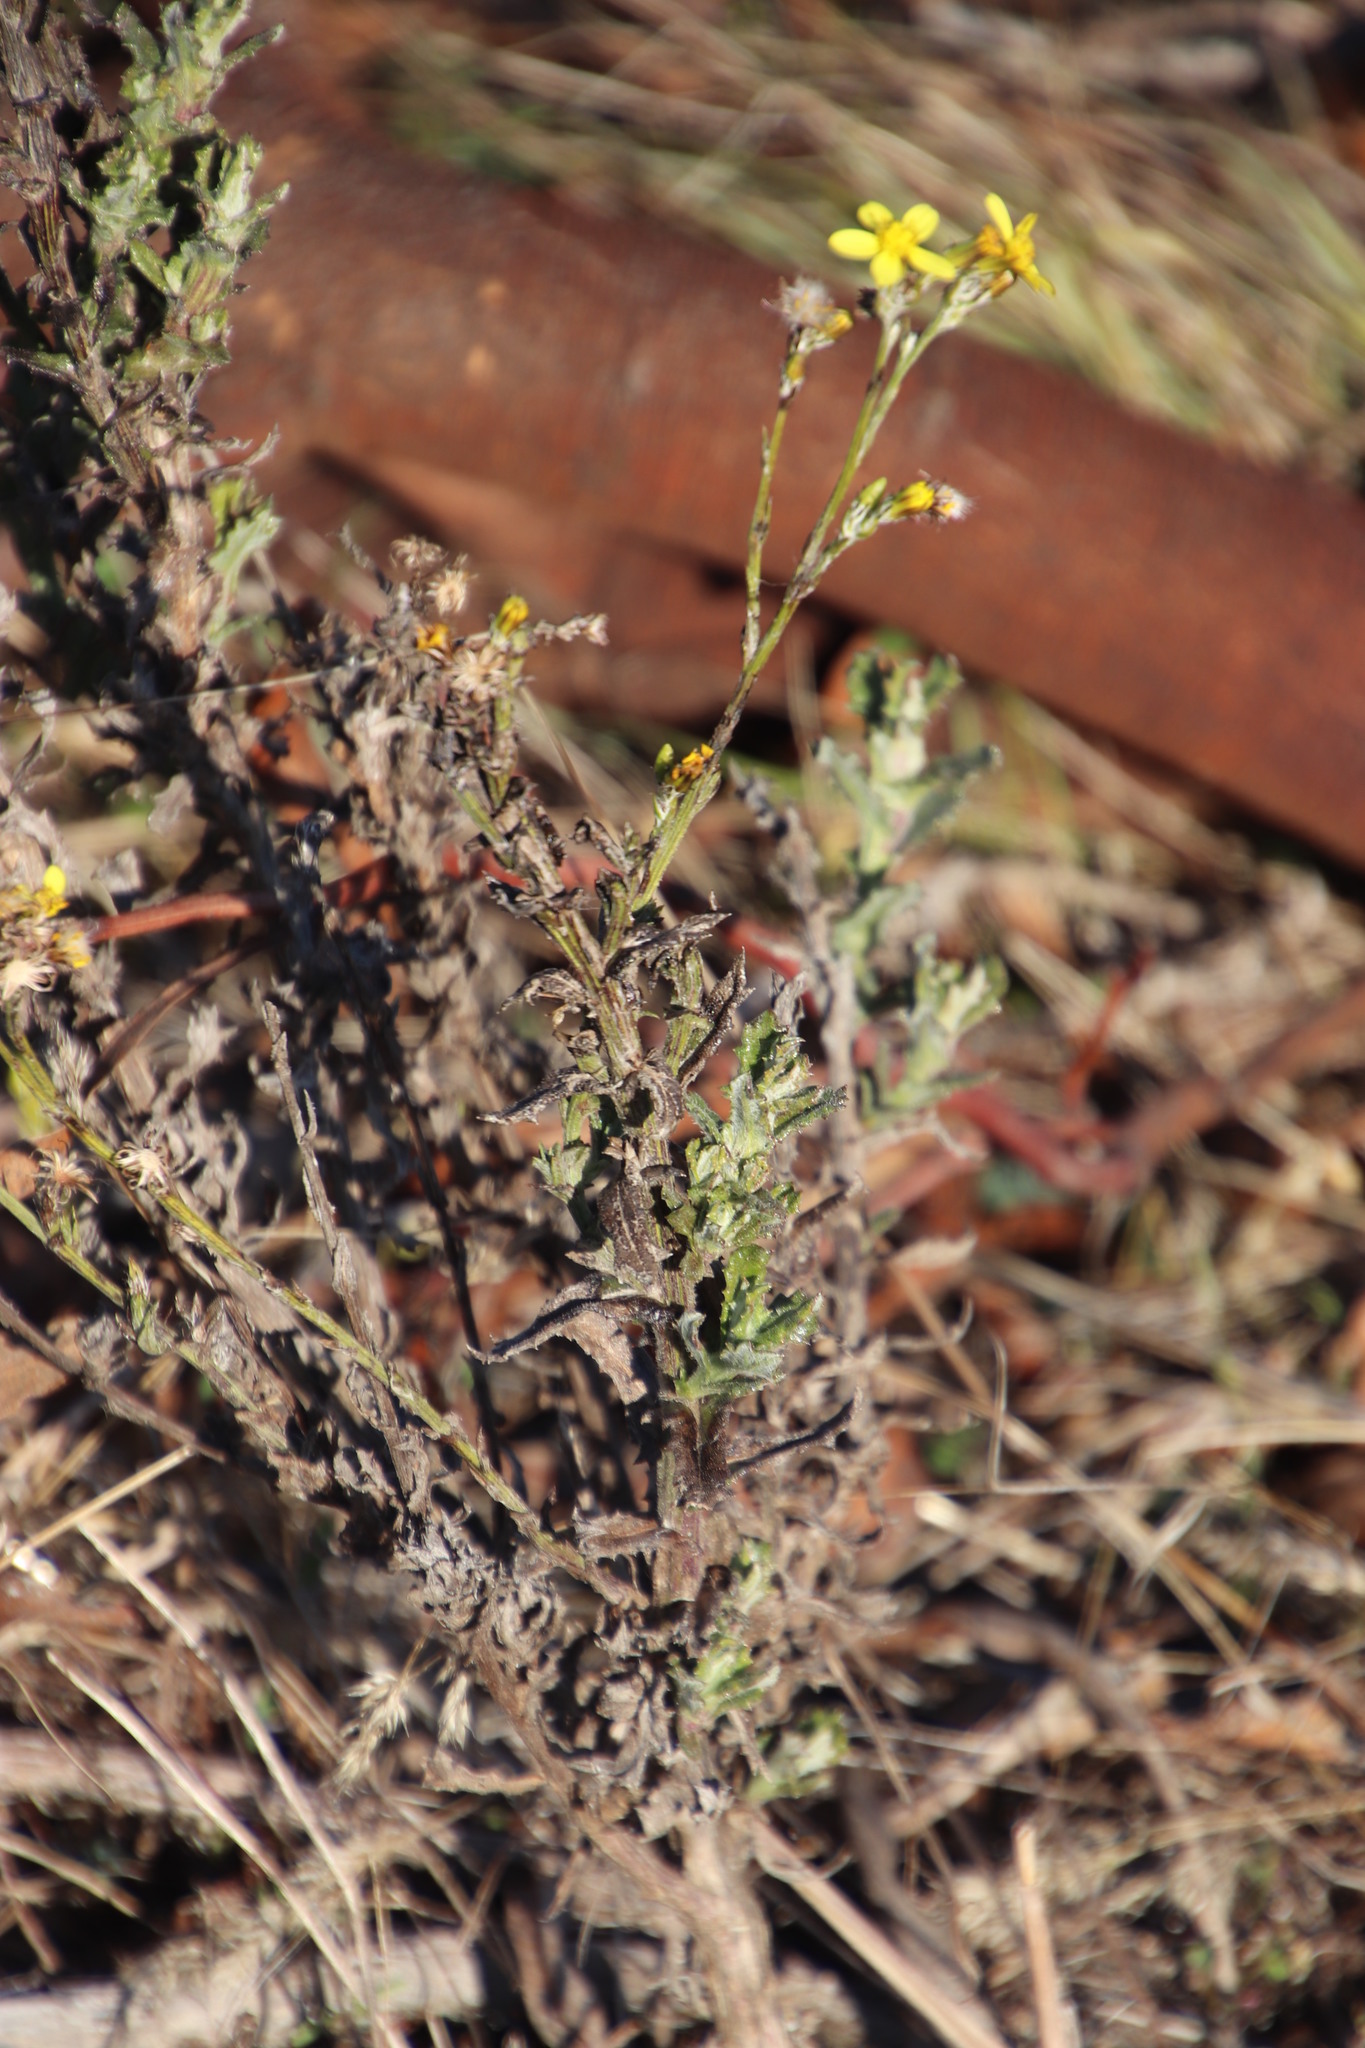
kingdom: Plantae
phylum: Tracheophyta
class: Magnoliopsida
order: Asterales
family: Asteraceae
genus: Senecio
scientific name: Senecio pubigerus
